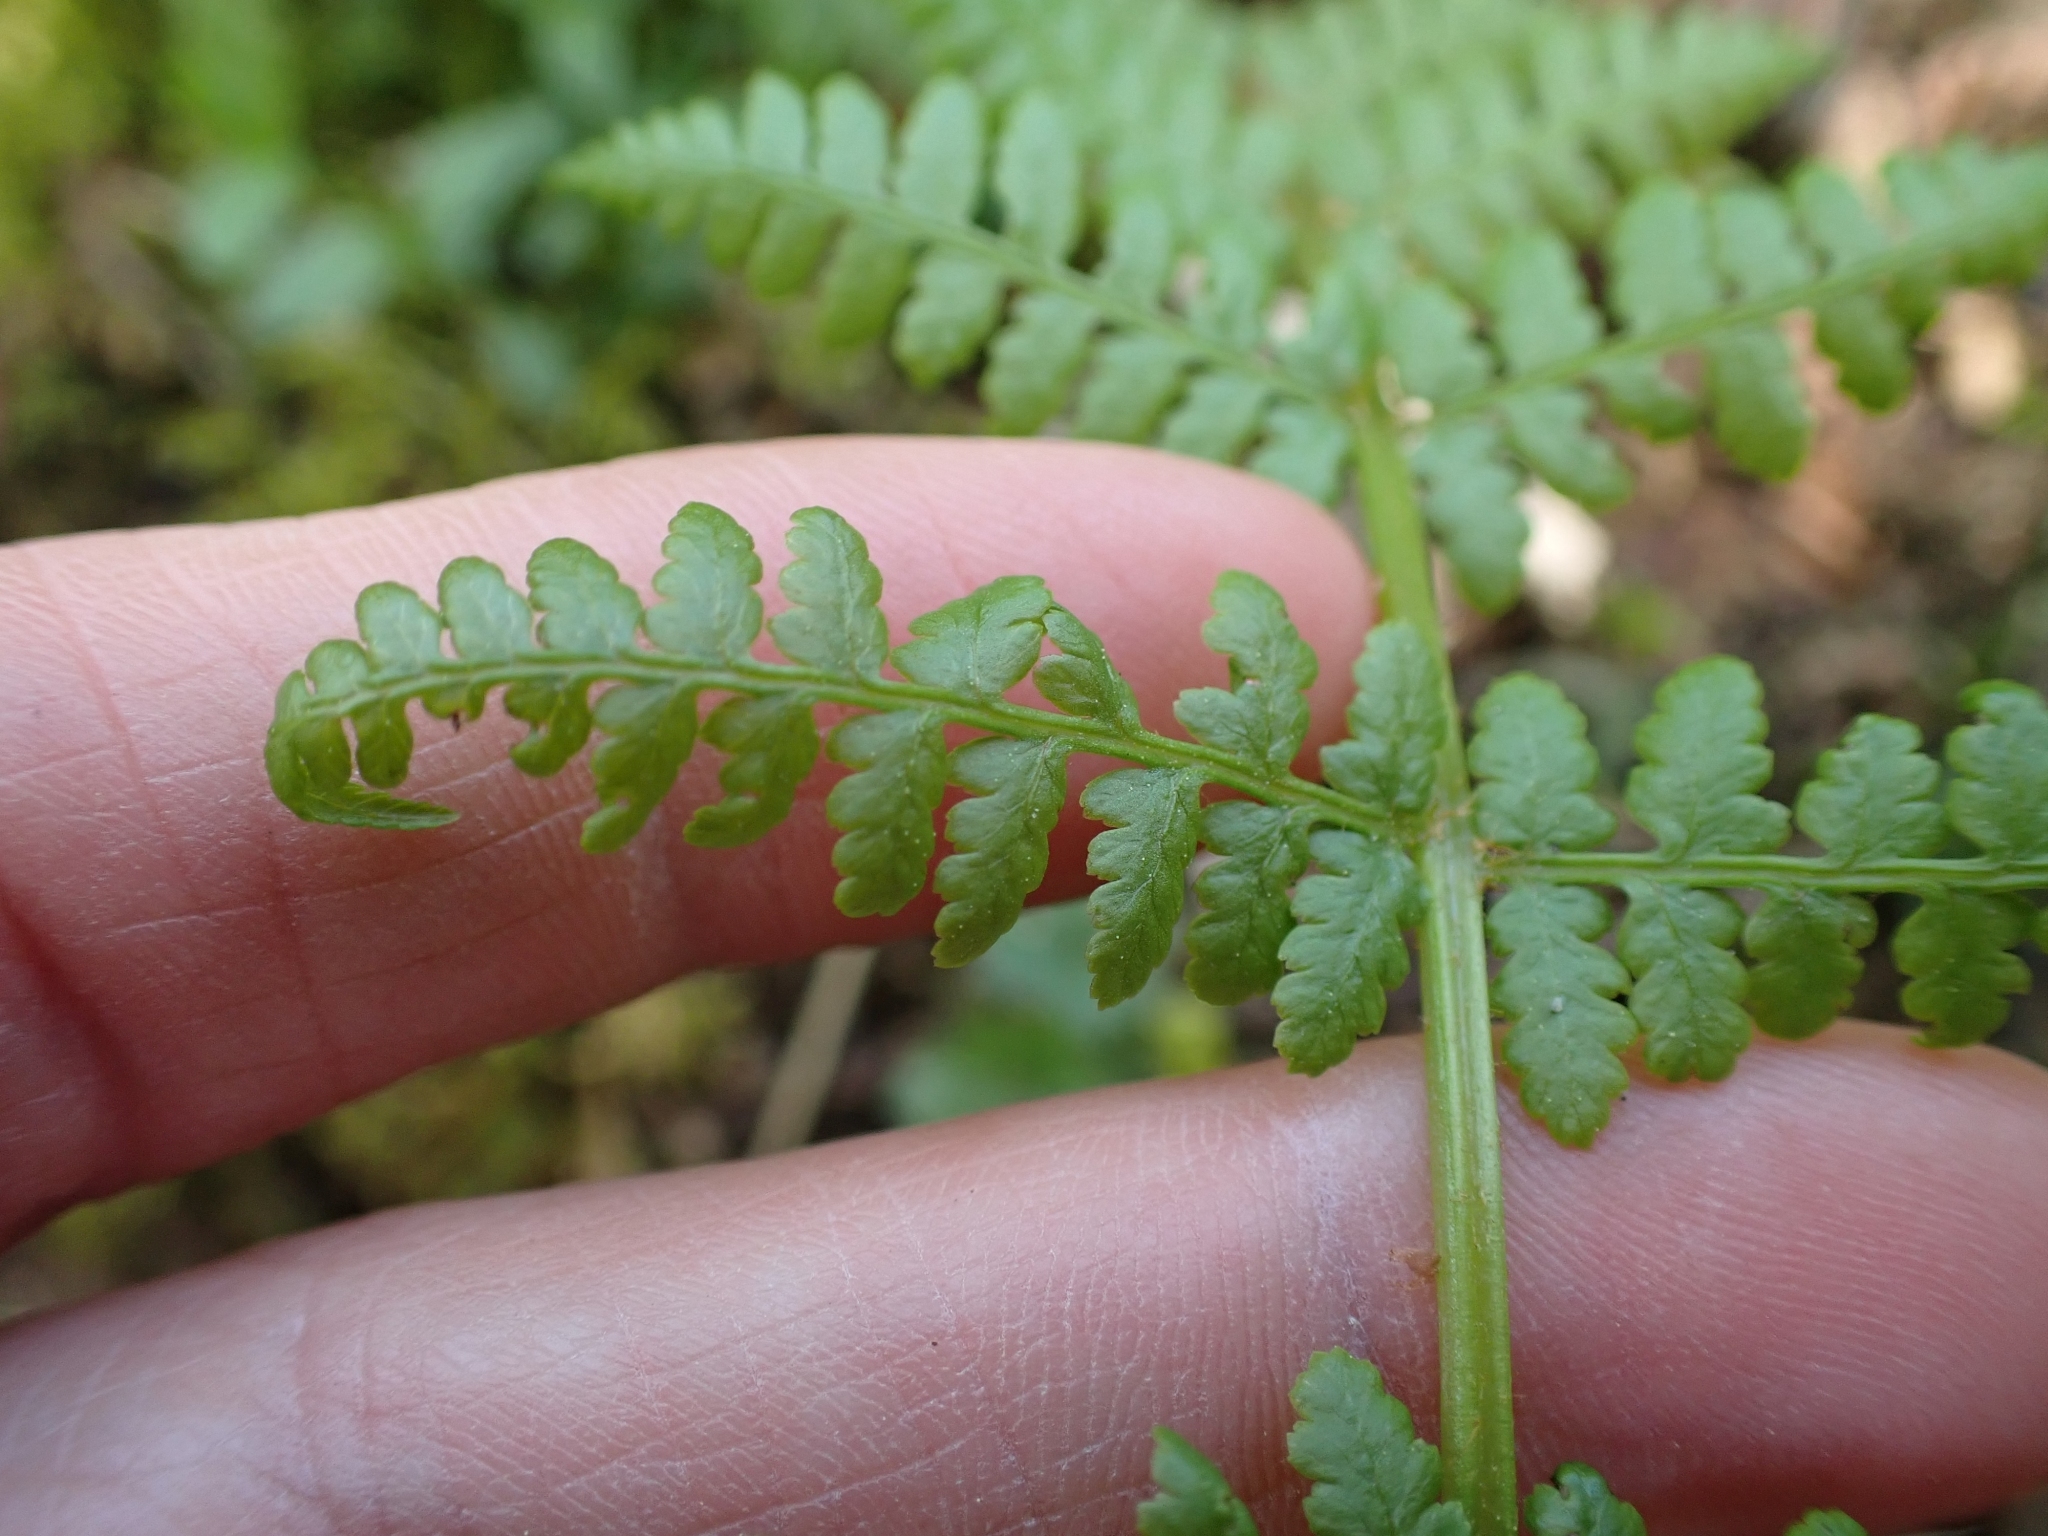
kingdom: Plantae
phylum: Tracheophyta
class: Polypodiopsida
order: Polypodiales
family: Athyriaceae
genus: Athyrium
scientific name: Athyrium filix-femina
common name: Lady fern
